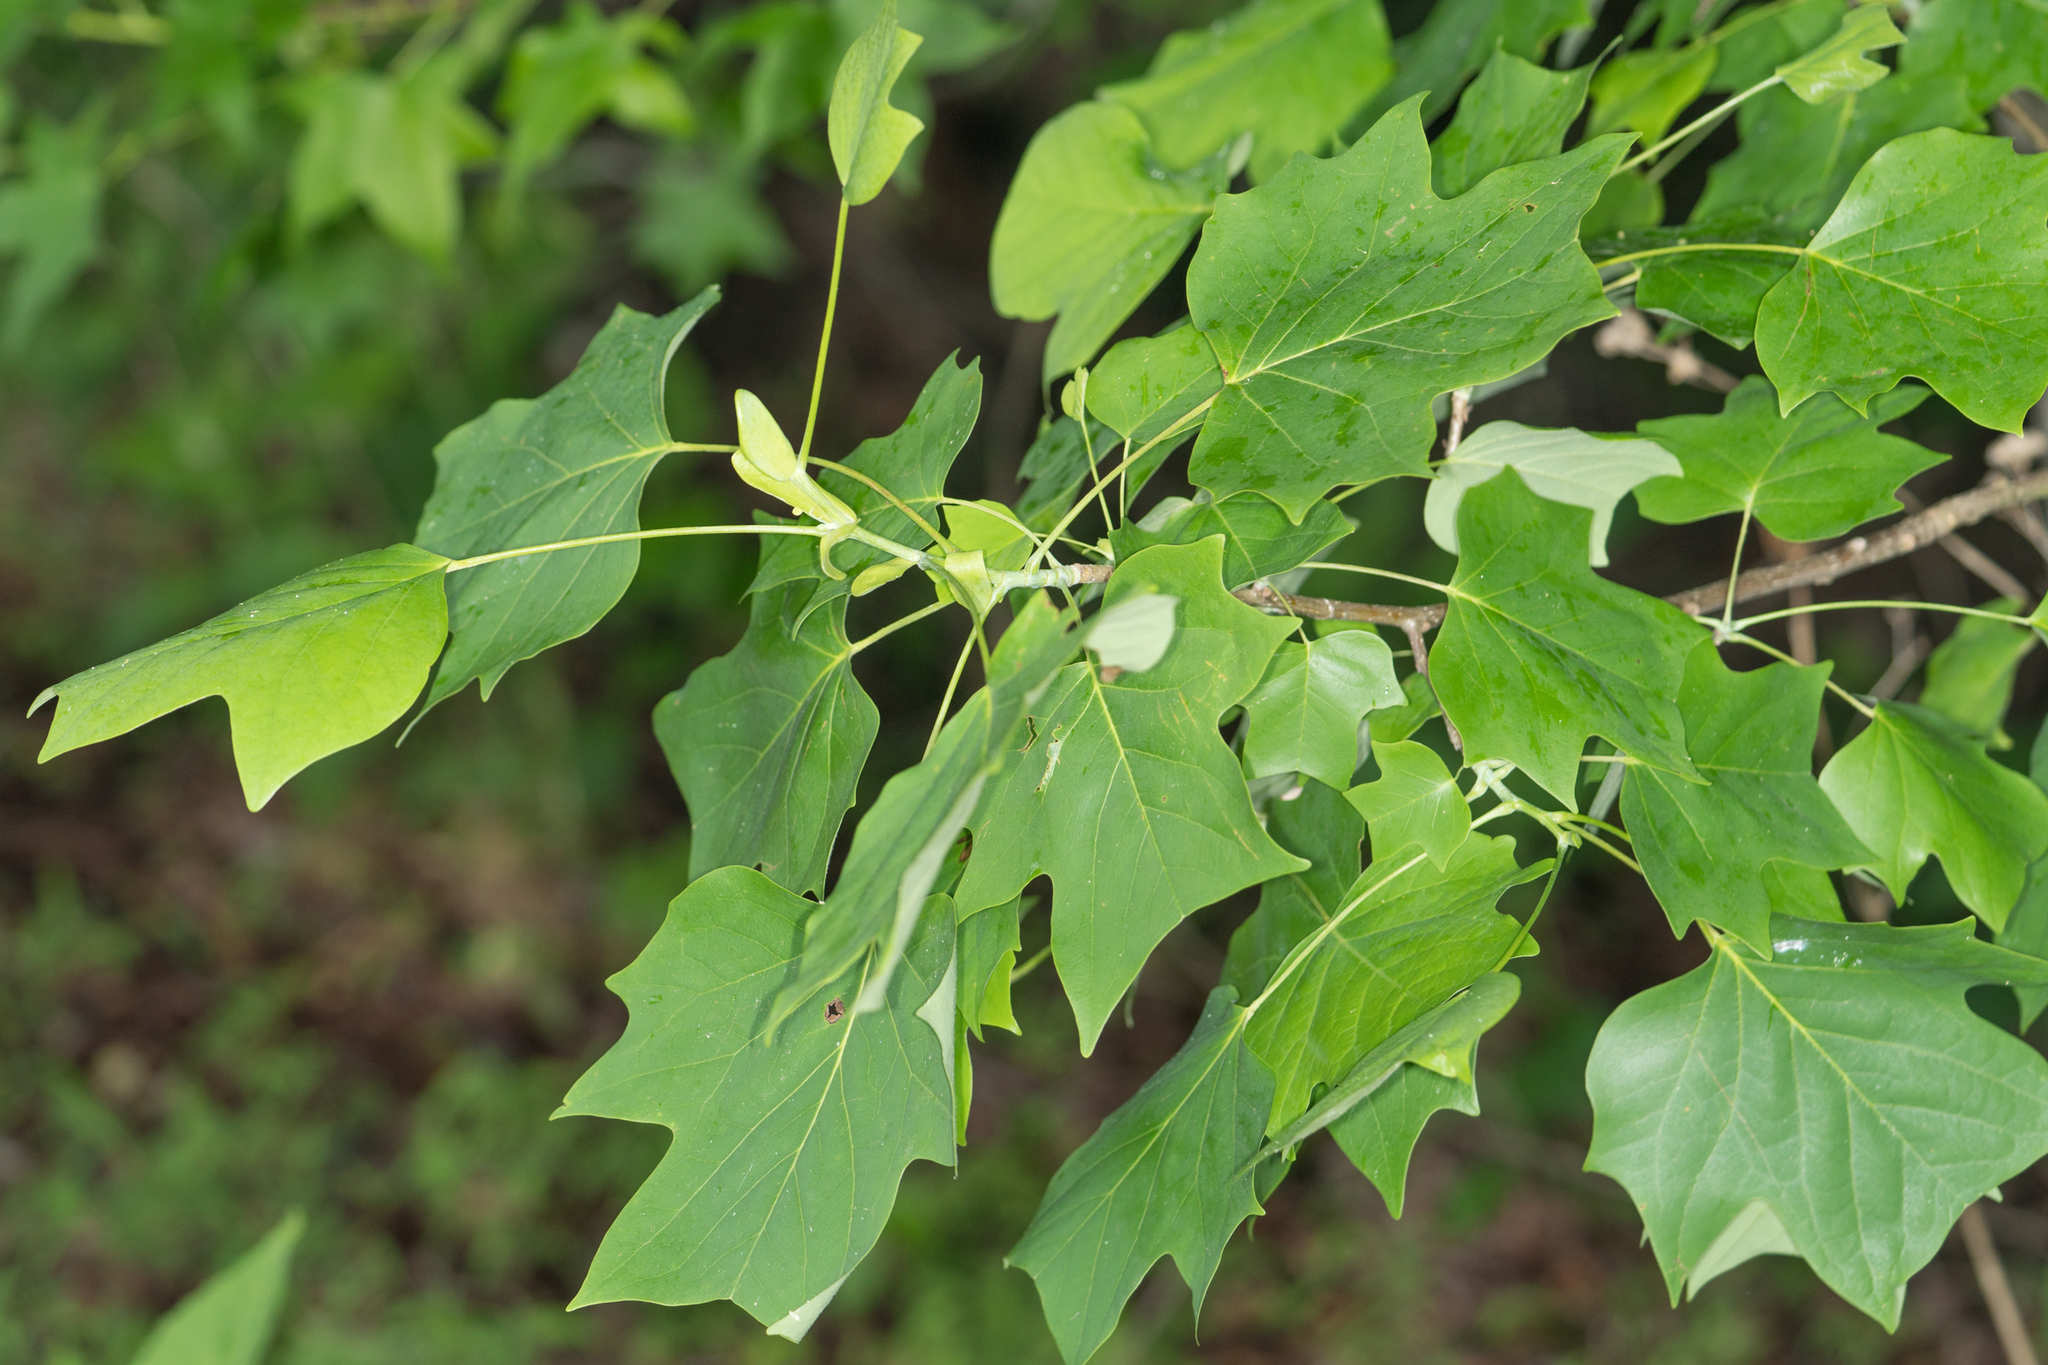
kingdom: Plantae
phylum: Tracheophyta
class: Magnoliopsida
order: Magnoliales
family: Magnoliaceae
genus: Liriodendron
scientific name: Liriodendron tulipifera
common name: Tulip tree
